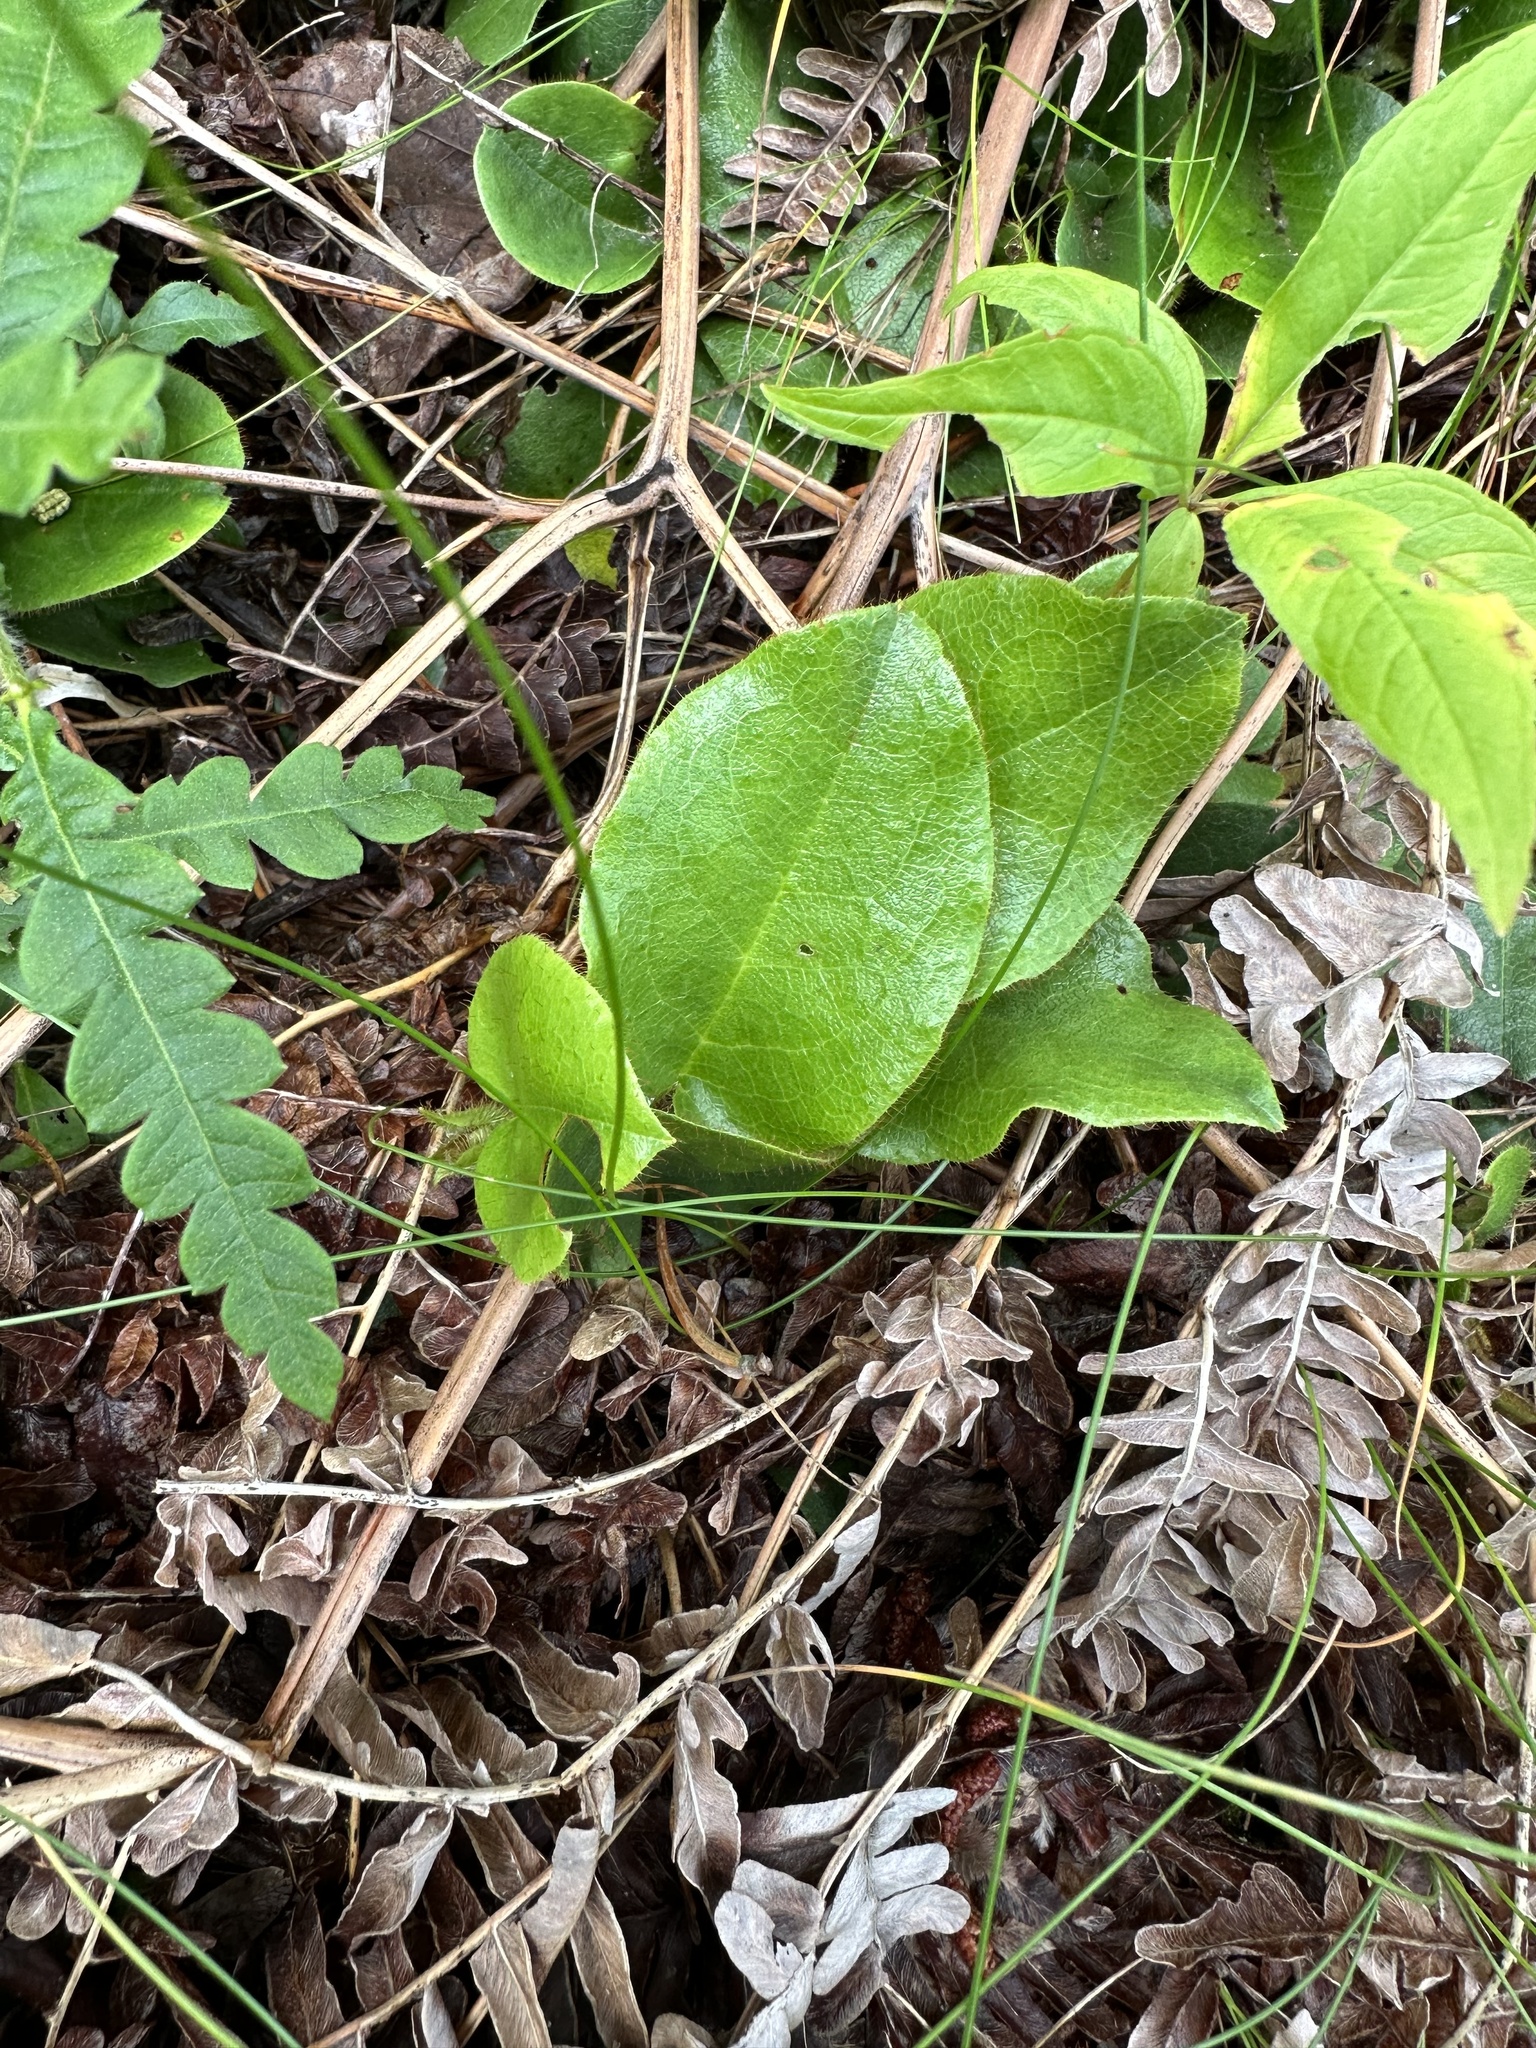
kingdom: Plantae
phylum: Tracheophyta
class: Magnoliopsida
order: Ericales
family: Ericaceae
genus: Epigaea
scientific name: Epigaea repens
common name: Gravelroot
